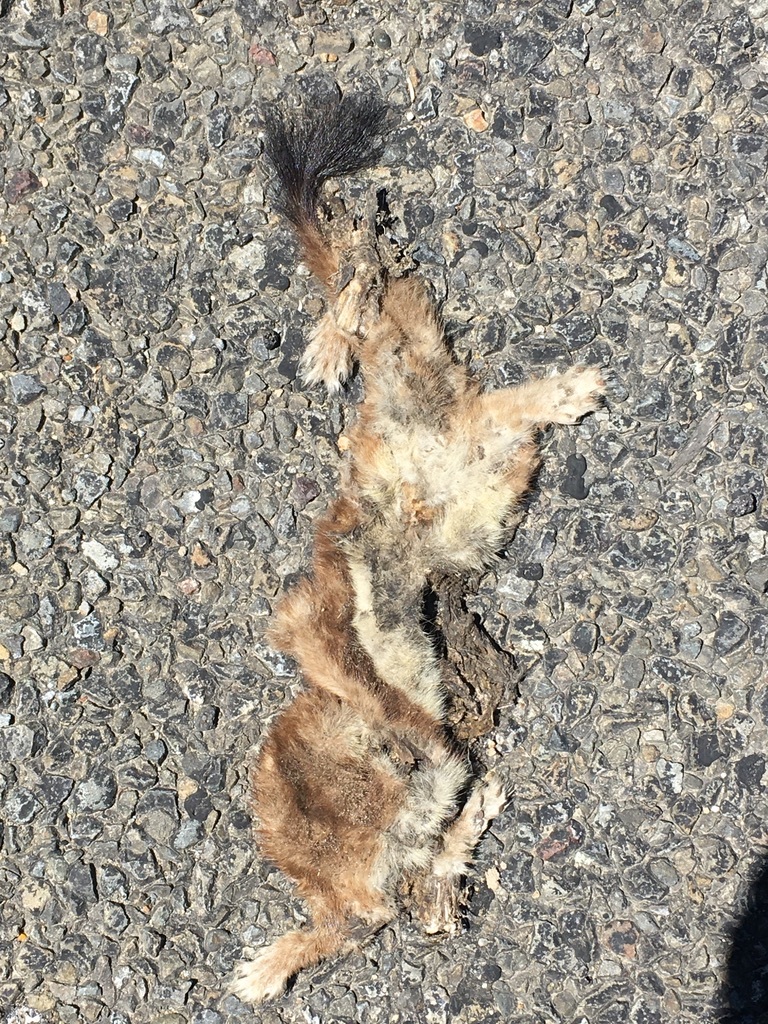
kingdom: Animalia
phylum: Chordata
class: Mammalia
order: Carnivora
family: Mustelidae
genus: Mustela
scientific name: Mustela erminea
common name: Stoat
